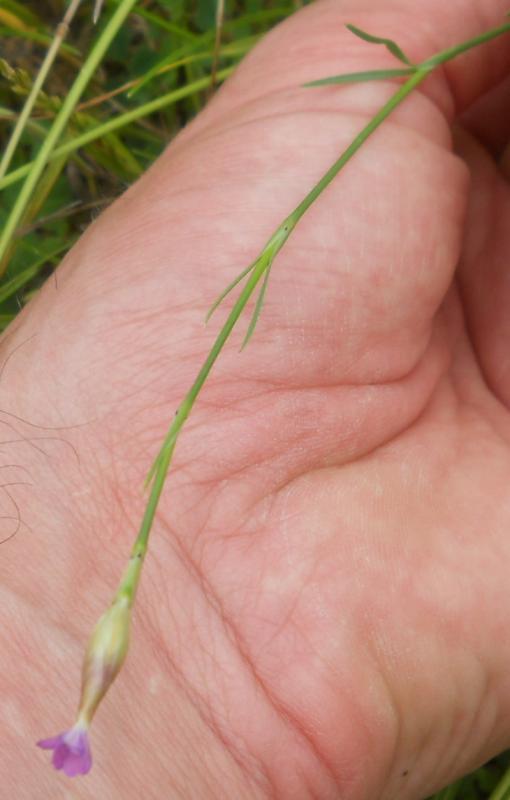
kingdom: Plantae
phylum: Tracheophyta
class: Magnoliopsida
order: Caryophyllales
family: Caryophyllaceae
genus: Petrorhagia
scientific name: Petrorhagia prolifera
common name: Proliferous pink
